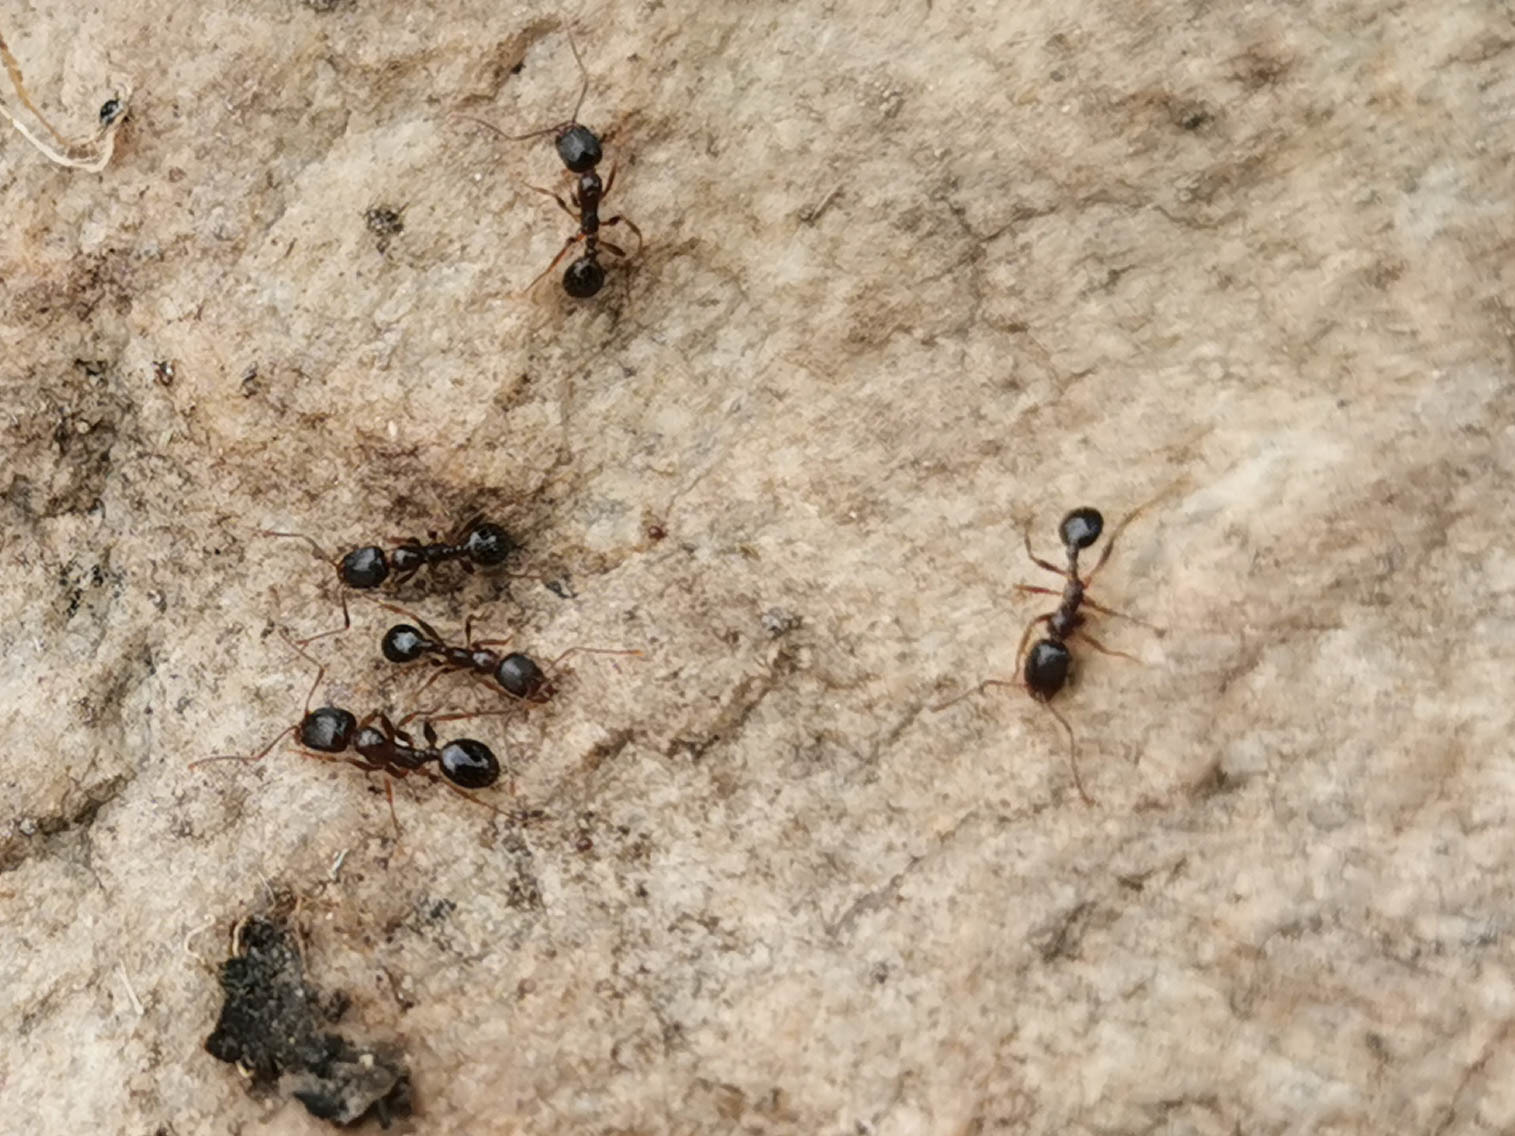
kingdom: Animalia
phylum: Arthropoda
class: Insecta
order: Hymenoptera
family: Formicidae
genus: Aphaenogaster
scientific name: Aphaenogaster occidentalis
